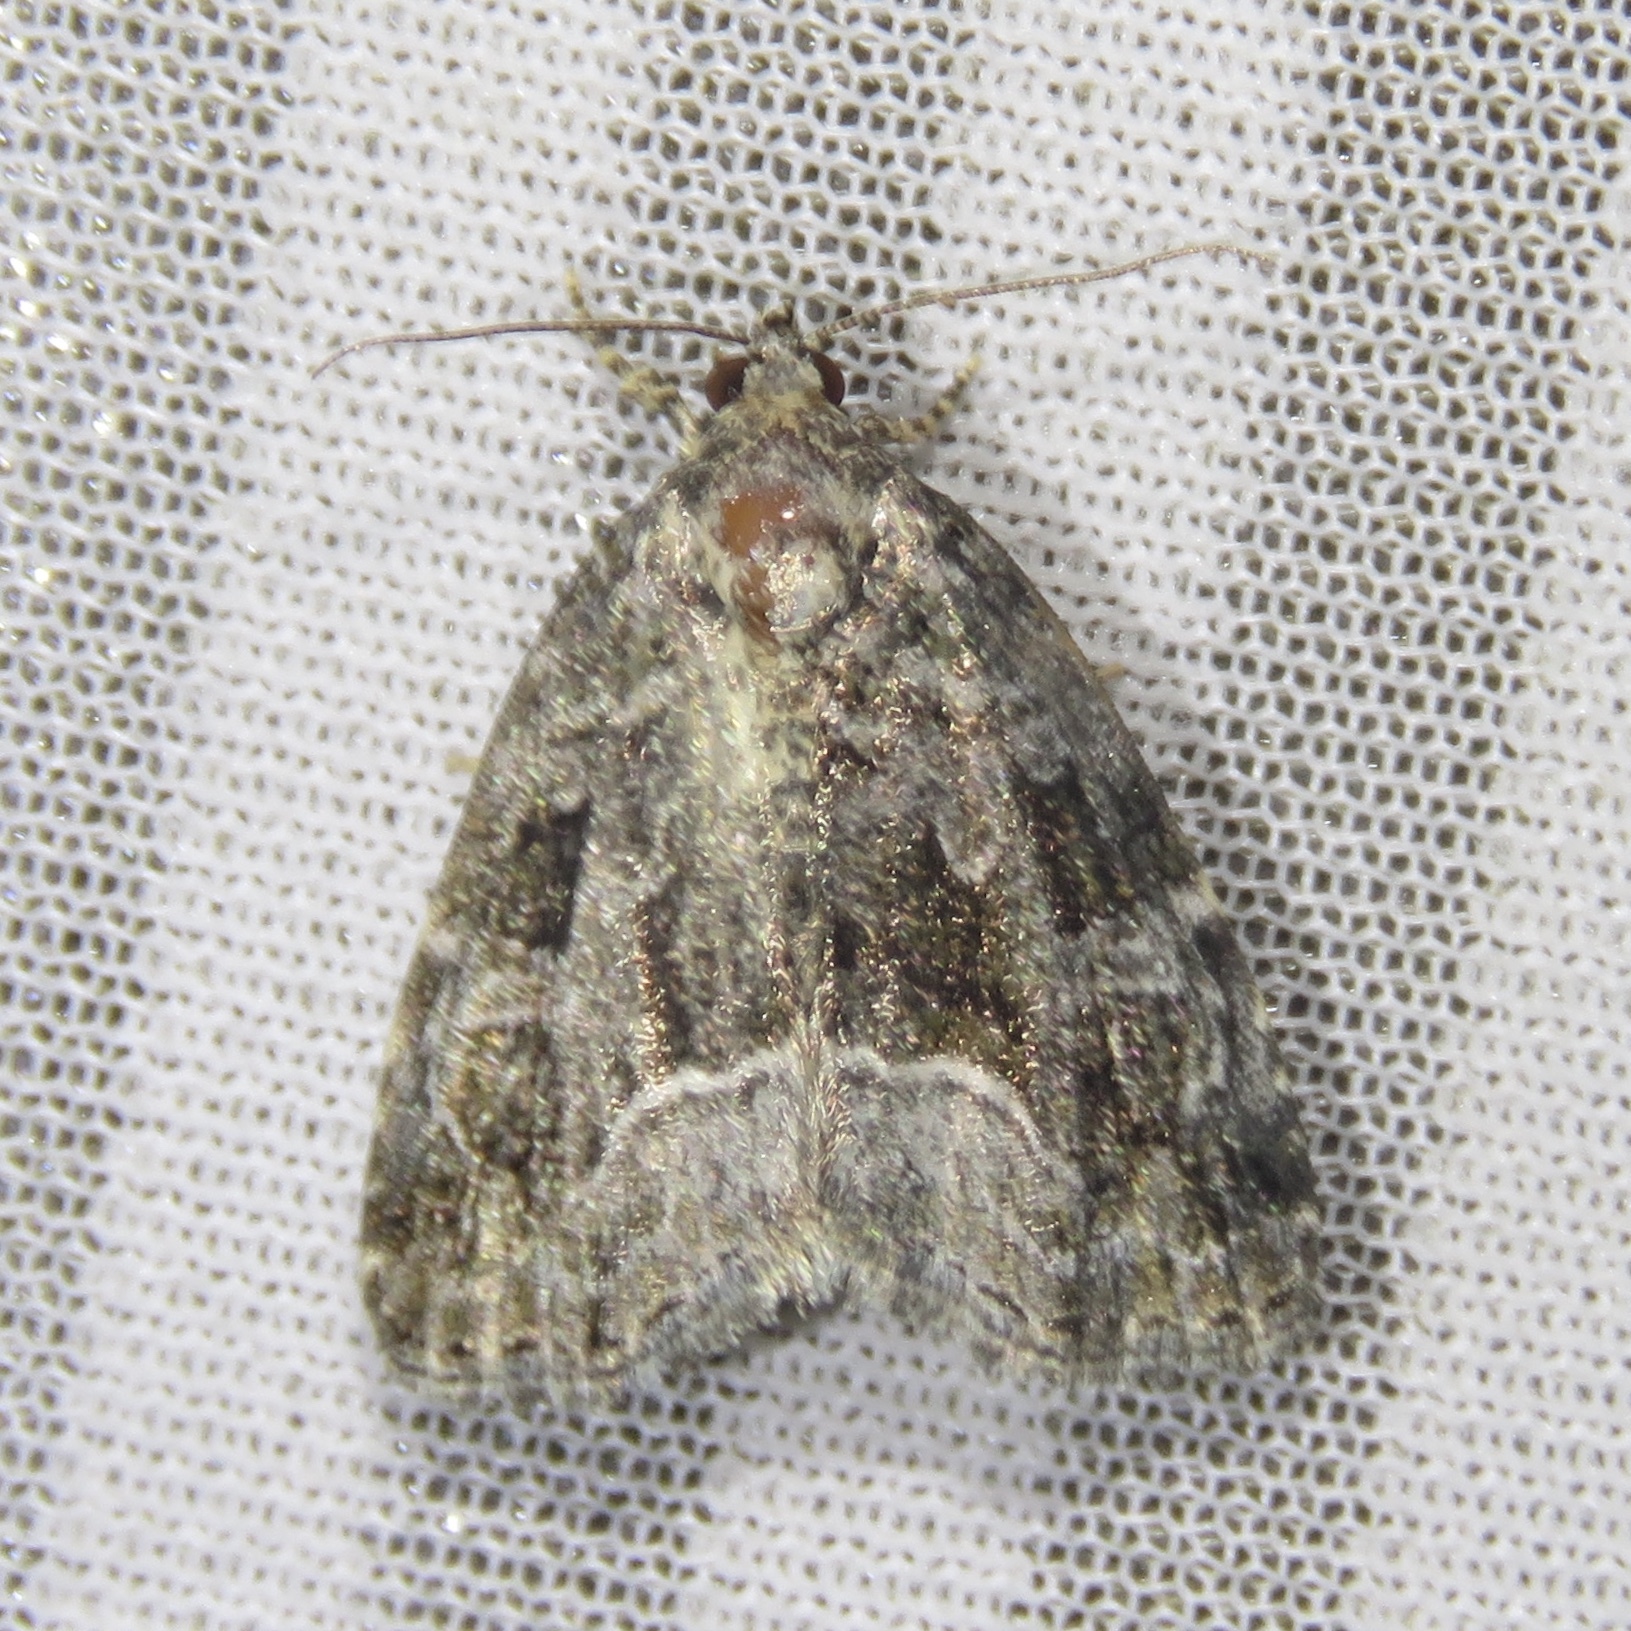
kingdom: Animalia
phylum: Arthropoda
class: Insecta
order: Lepidoptera
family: Noctuidae
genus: Protodeltote
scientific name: Protodeltote muscosula
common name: Large mossy glyph
